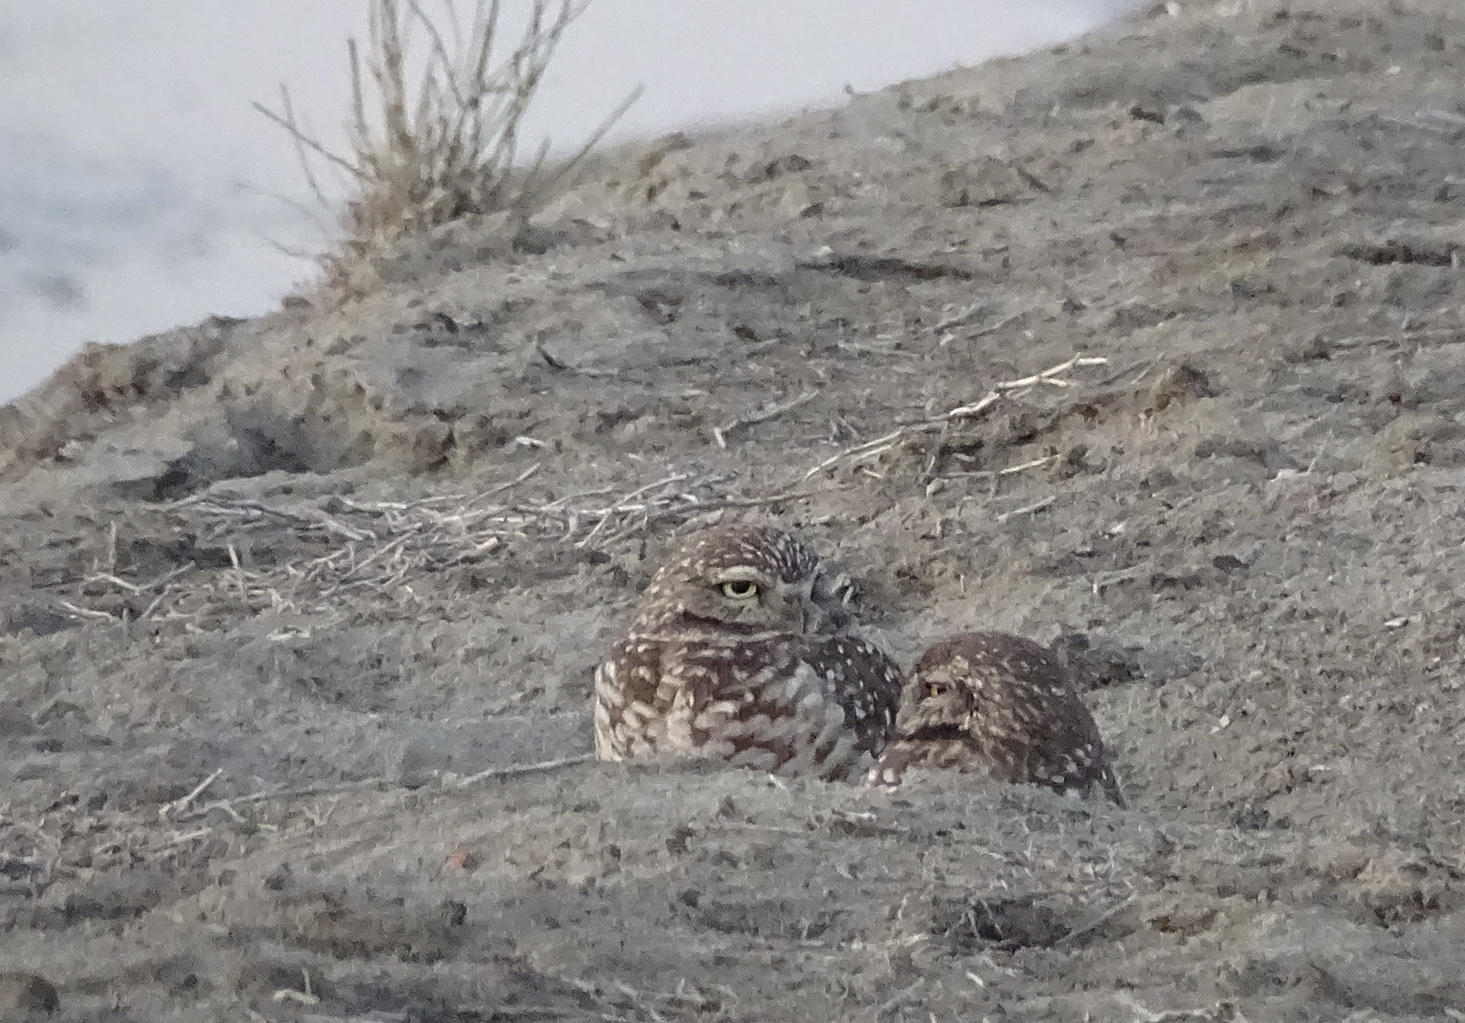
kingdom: Animalia
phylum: Chordata
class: Aves
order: Strigiformes
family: Strigidae
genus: Athene
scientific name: Athene cunicularia
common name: Burrowing owl
